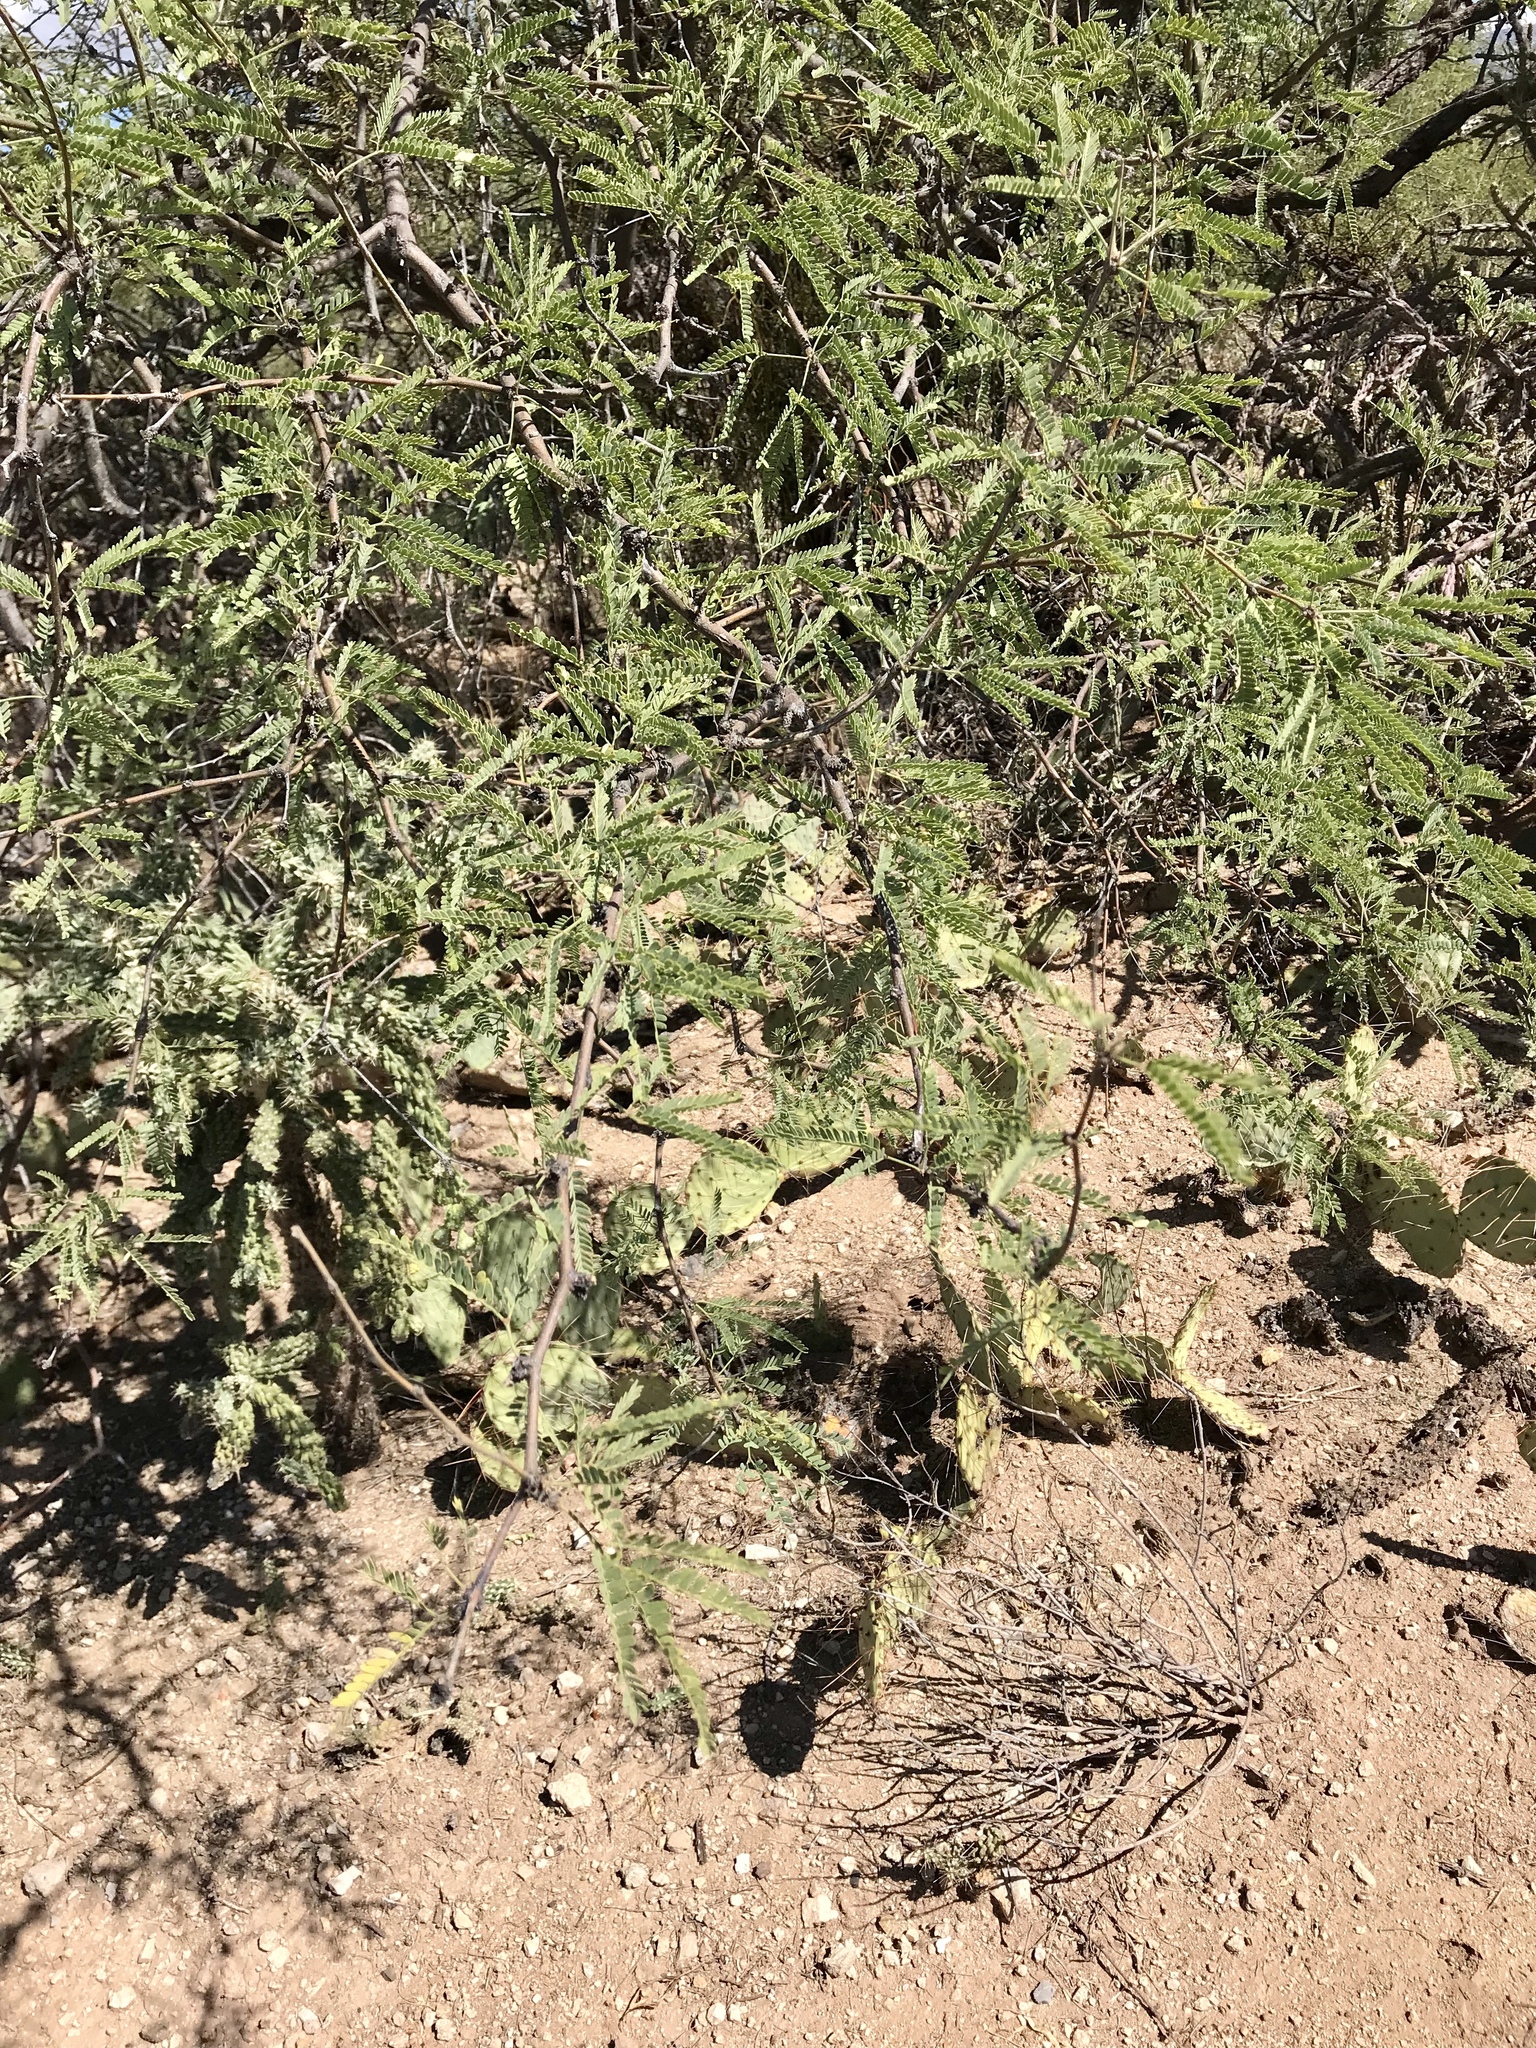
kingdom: Plantae
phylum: Tracheophyta
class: Magnoliopsida
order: Fabales
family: Fabaceae
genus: Prosopis
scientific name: Prosopis velutina
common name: Velvet mesquite
